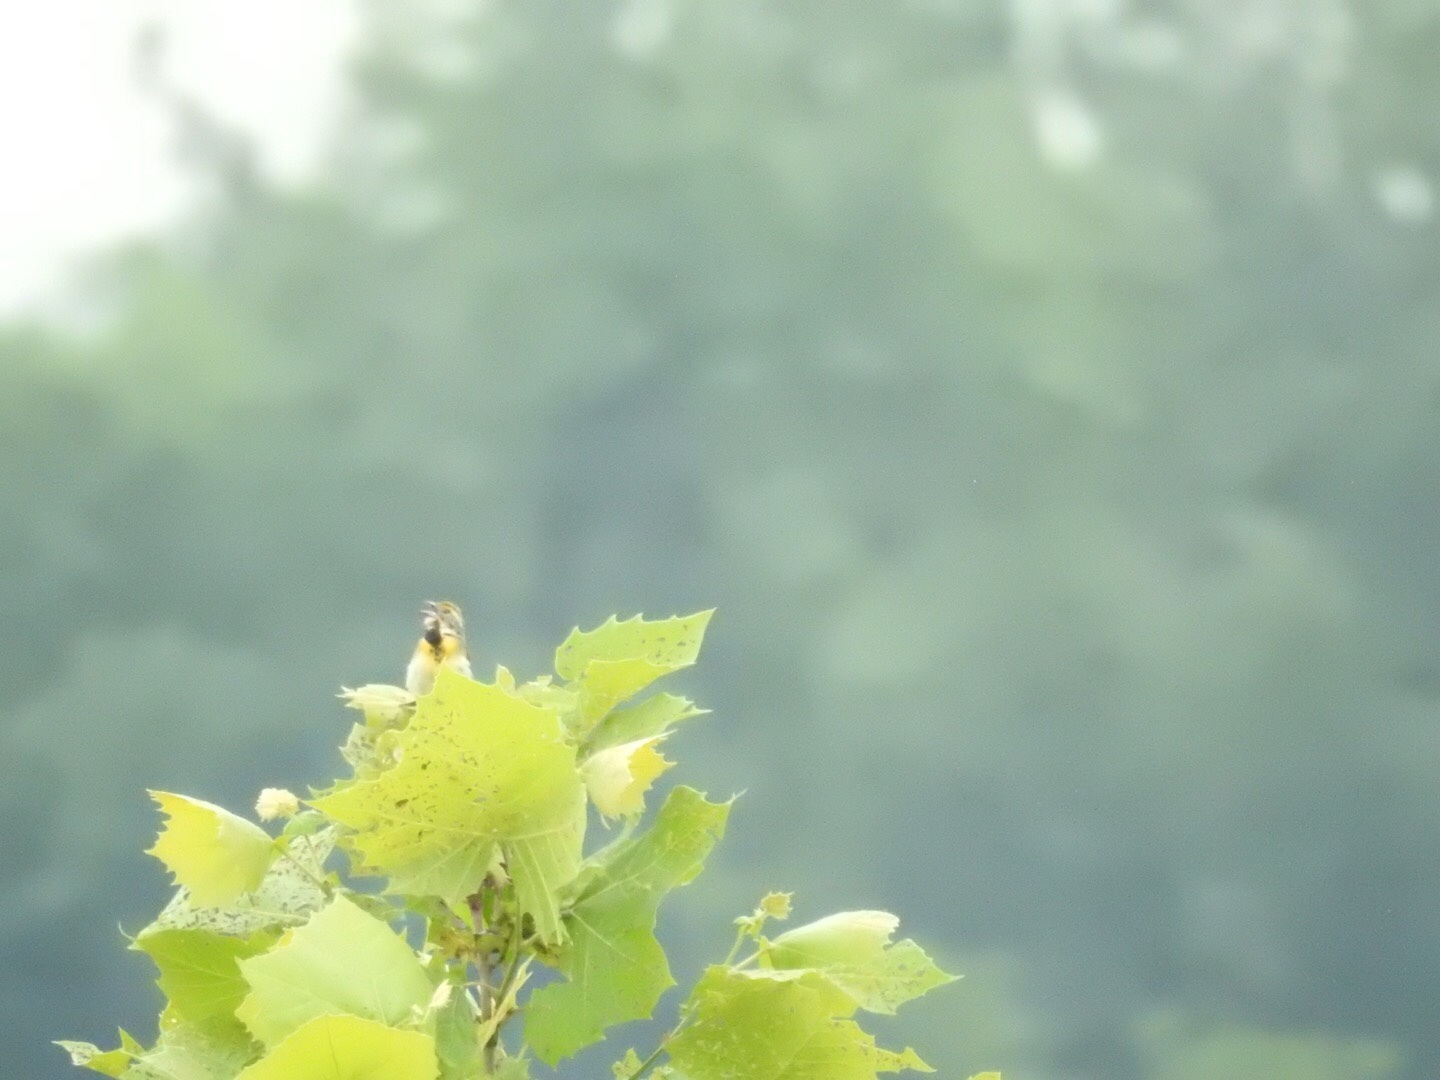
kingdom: Animalia
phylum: Chordata
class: Aves
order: Passeriformes
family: Cardinalidae
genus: Spiza
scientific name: Spiza americana
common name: Dickcissel
